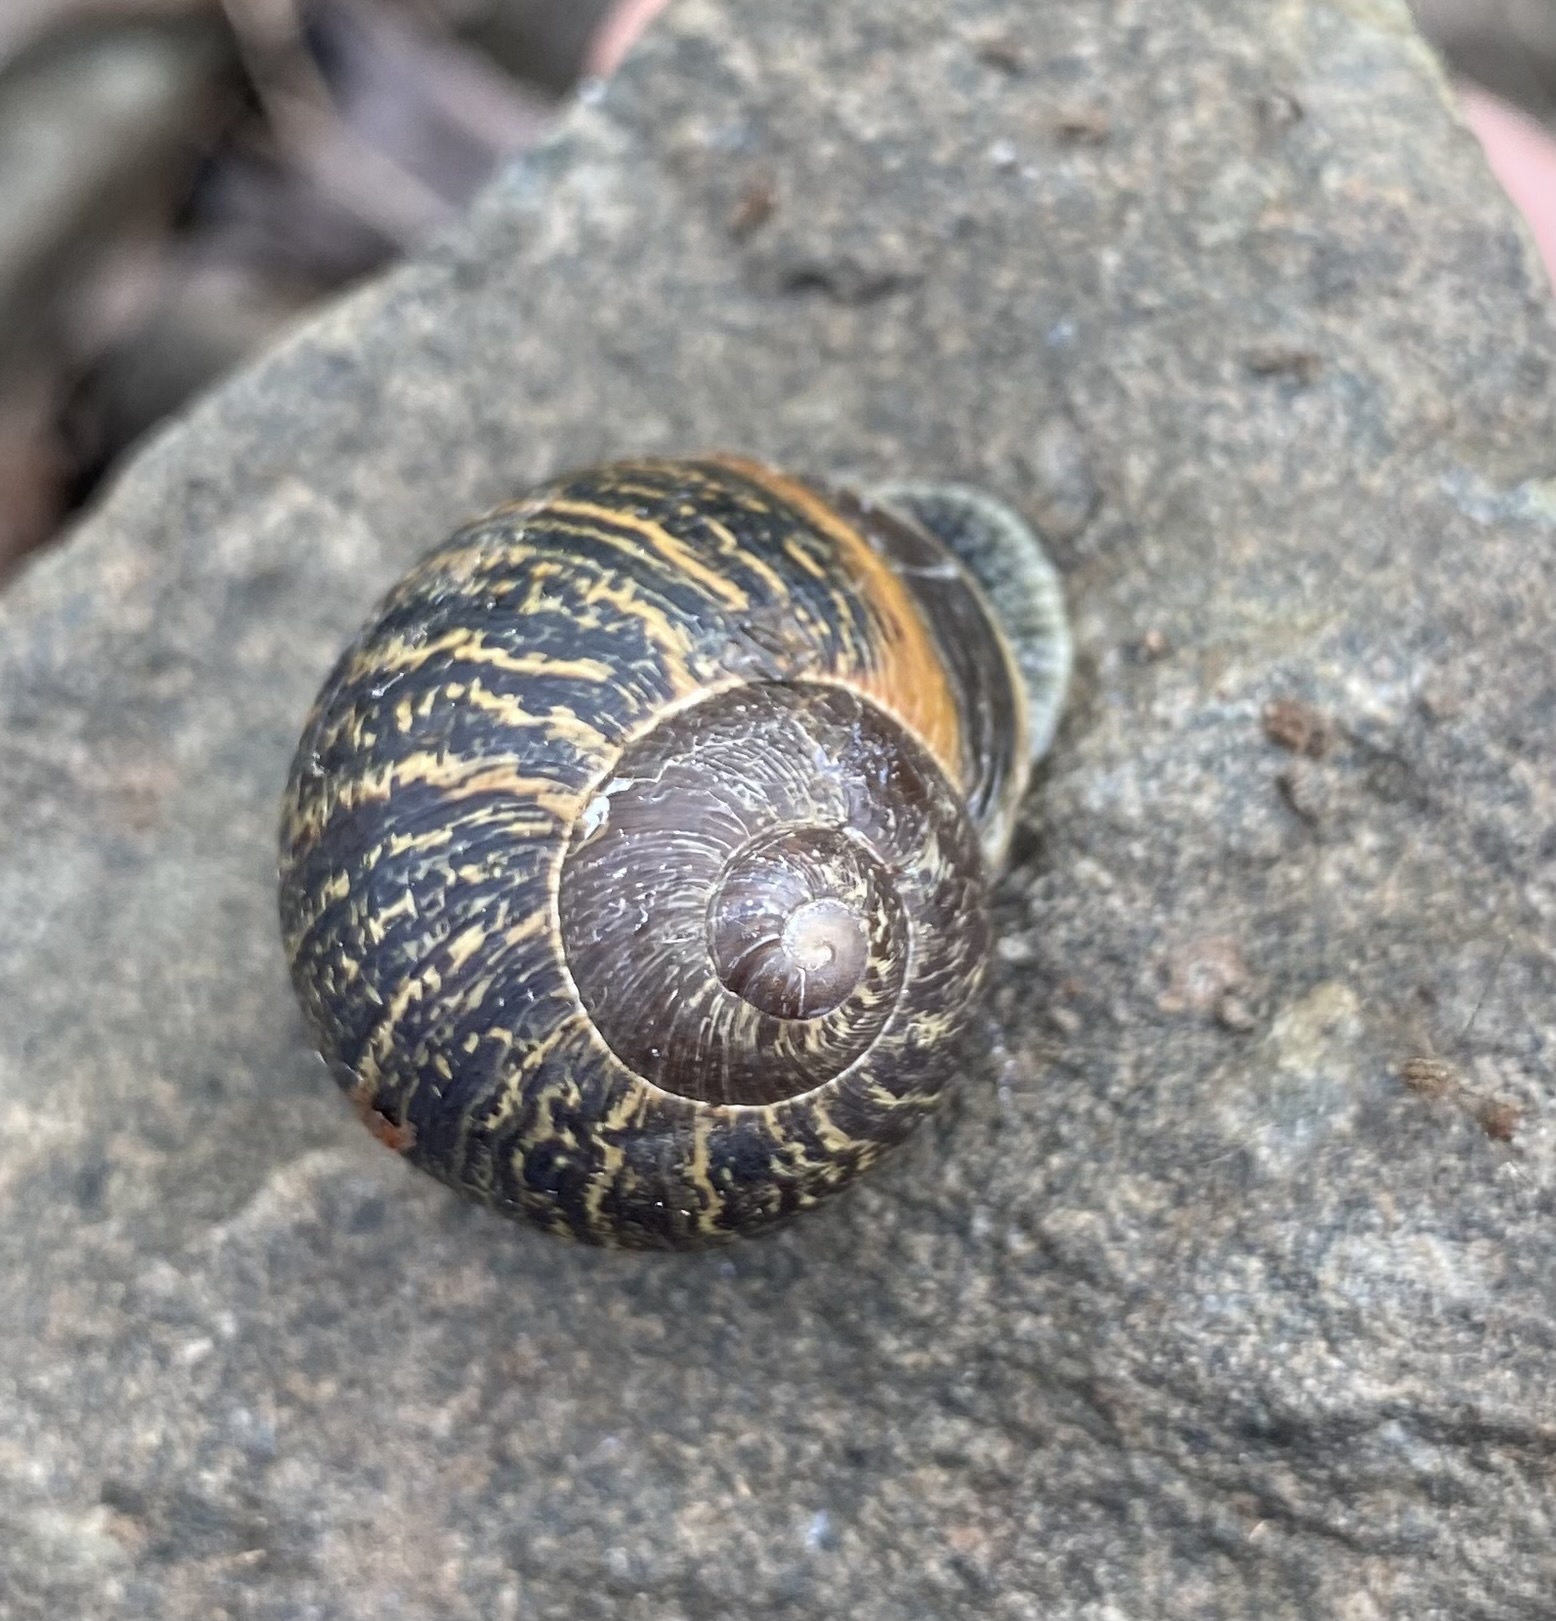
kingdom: Animalia
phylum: Mollusca
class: Gastropoda
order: Stylommatophora
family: Helicidae
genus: Cornu
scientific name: Cornu aspersum
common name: Brown garden snail
